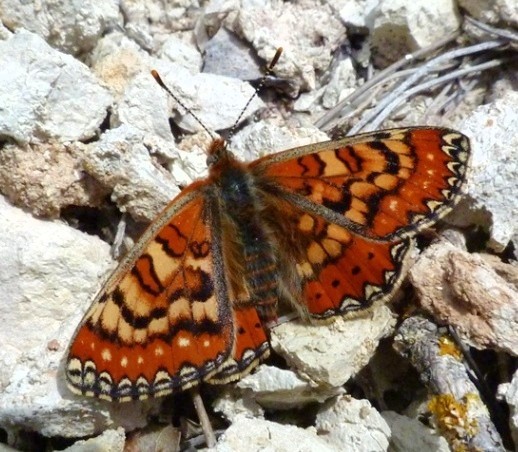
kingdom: Animalia
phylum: Arthropoda
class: Insecta
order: Lepidoptera
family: Nymphalidae
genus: Euphydryas
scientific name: Euphydryas desfontainii
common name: Spanish fritillary
